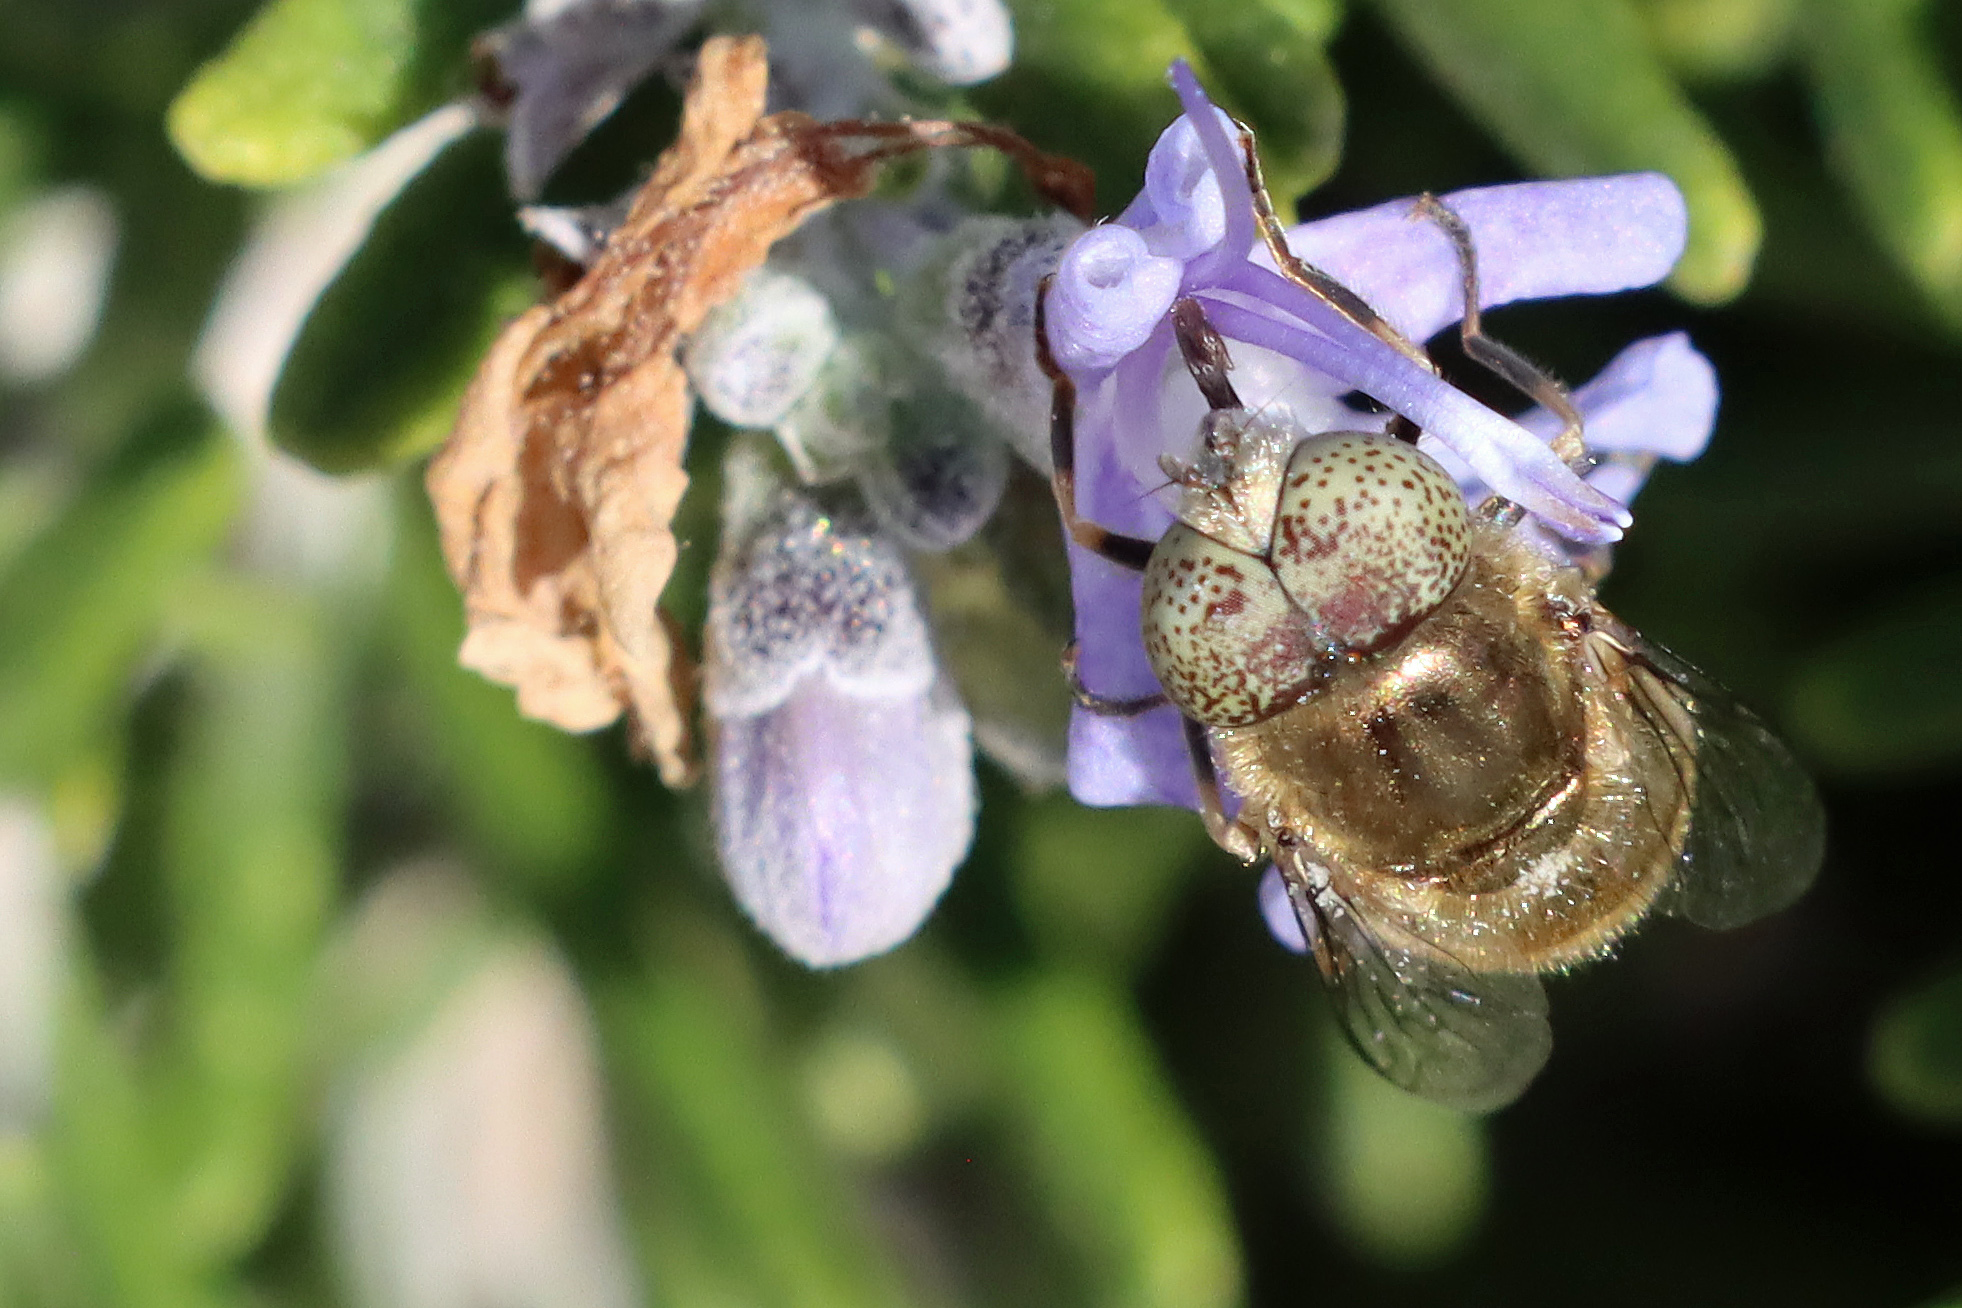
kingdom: Animalia
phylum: Arthropoda
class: Insecta
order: Diptera
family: Syrphidae
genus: Eristalinus
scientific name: Eristalinus aeneus
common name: Syrphid fly
